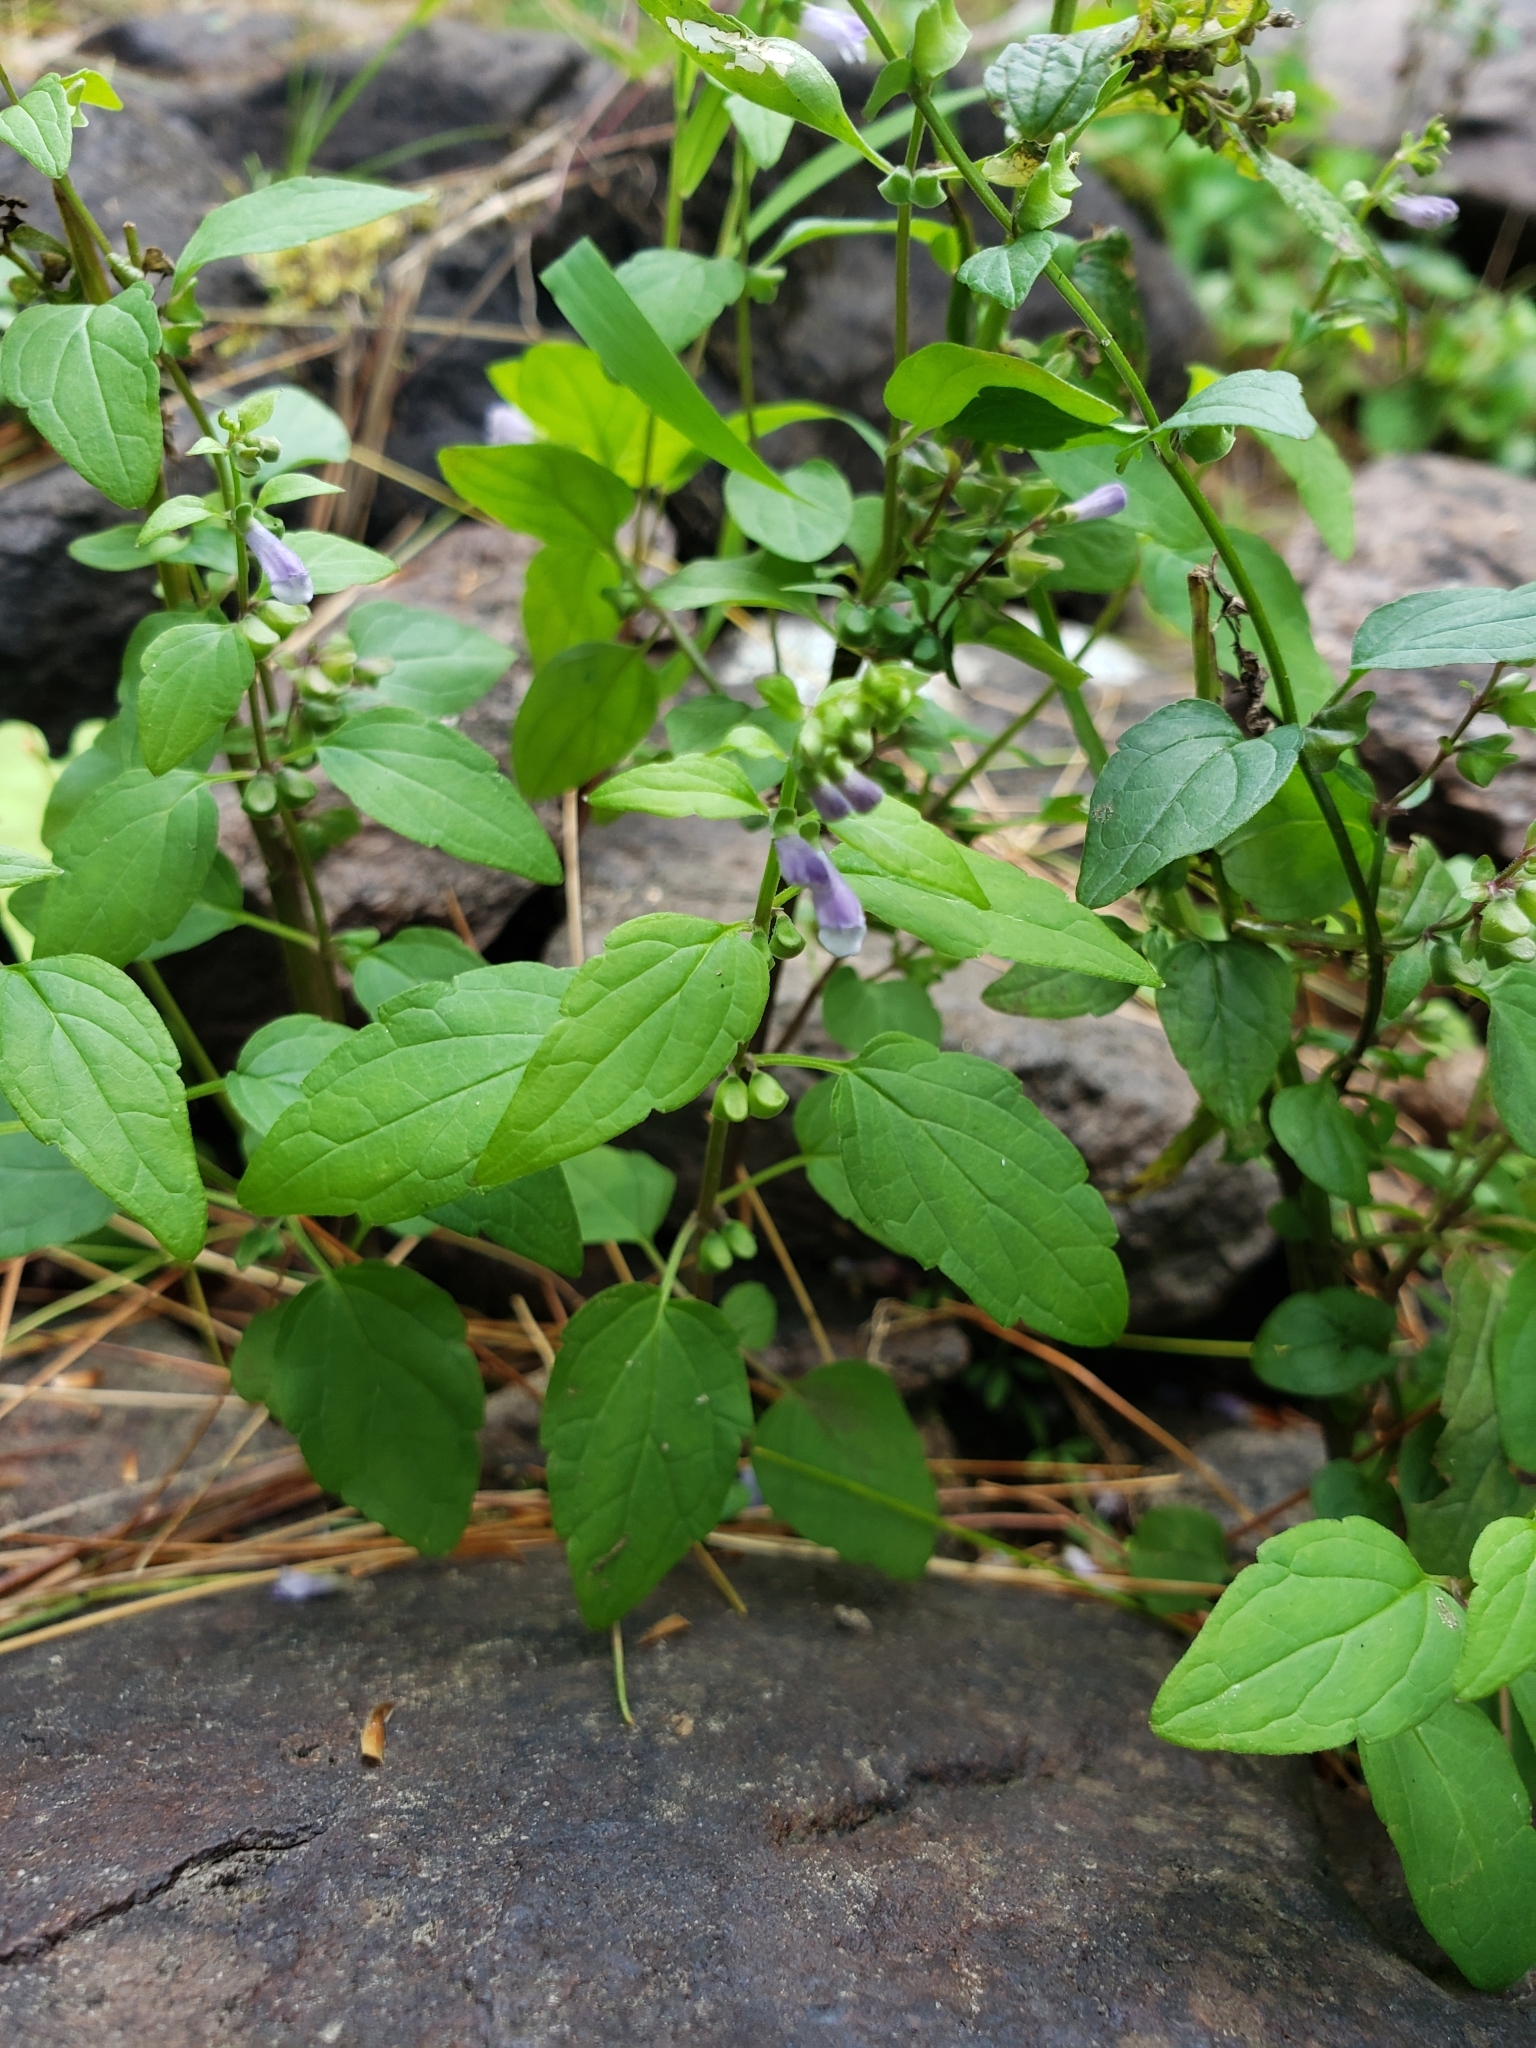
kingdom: Plantae
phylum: Tracheophyta
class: Magnoliopsida
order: Lamiales
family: Lamiaceae
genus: Scutellaria
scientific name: Scutellaria lateriflora
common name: Blue skullcap
